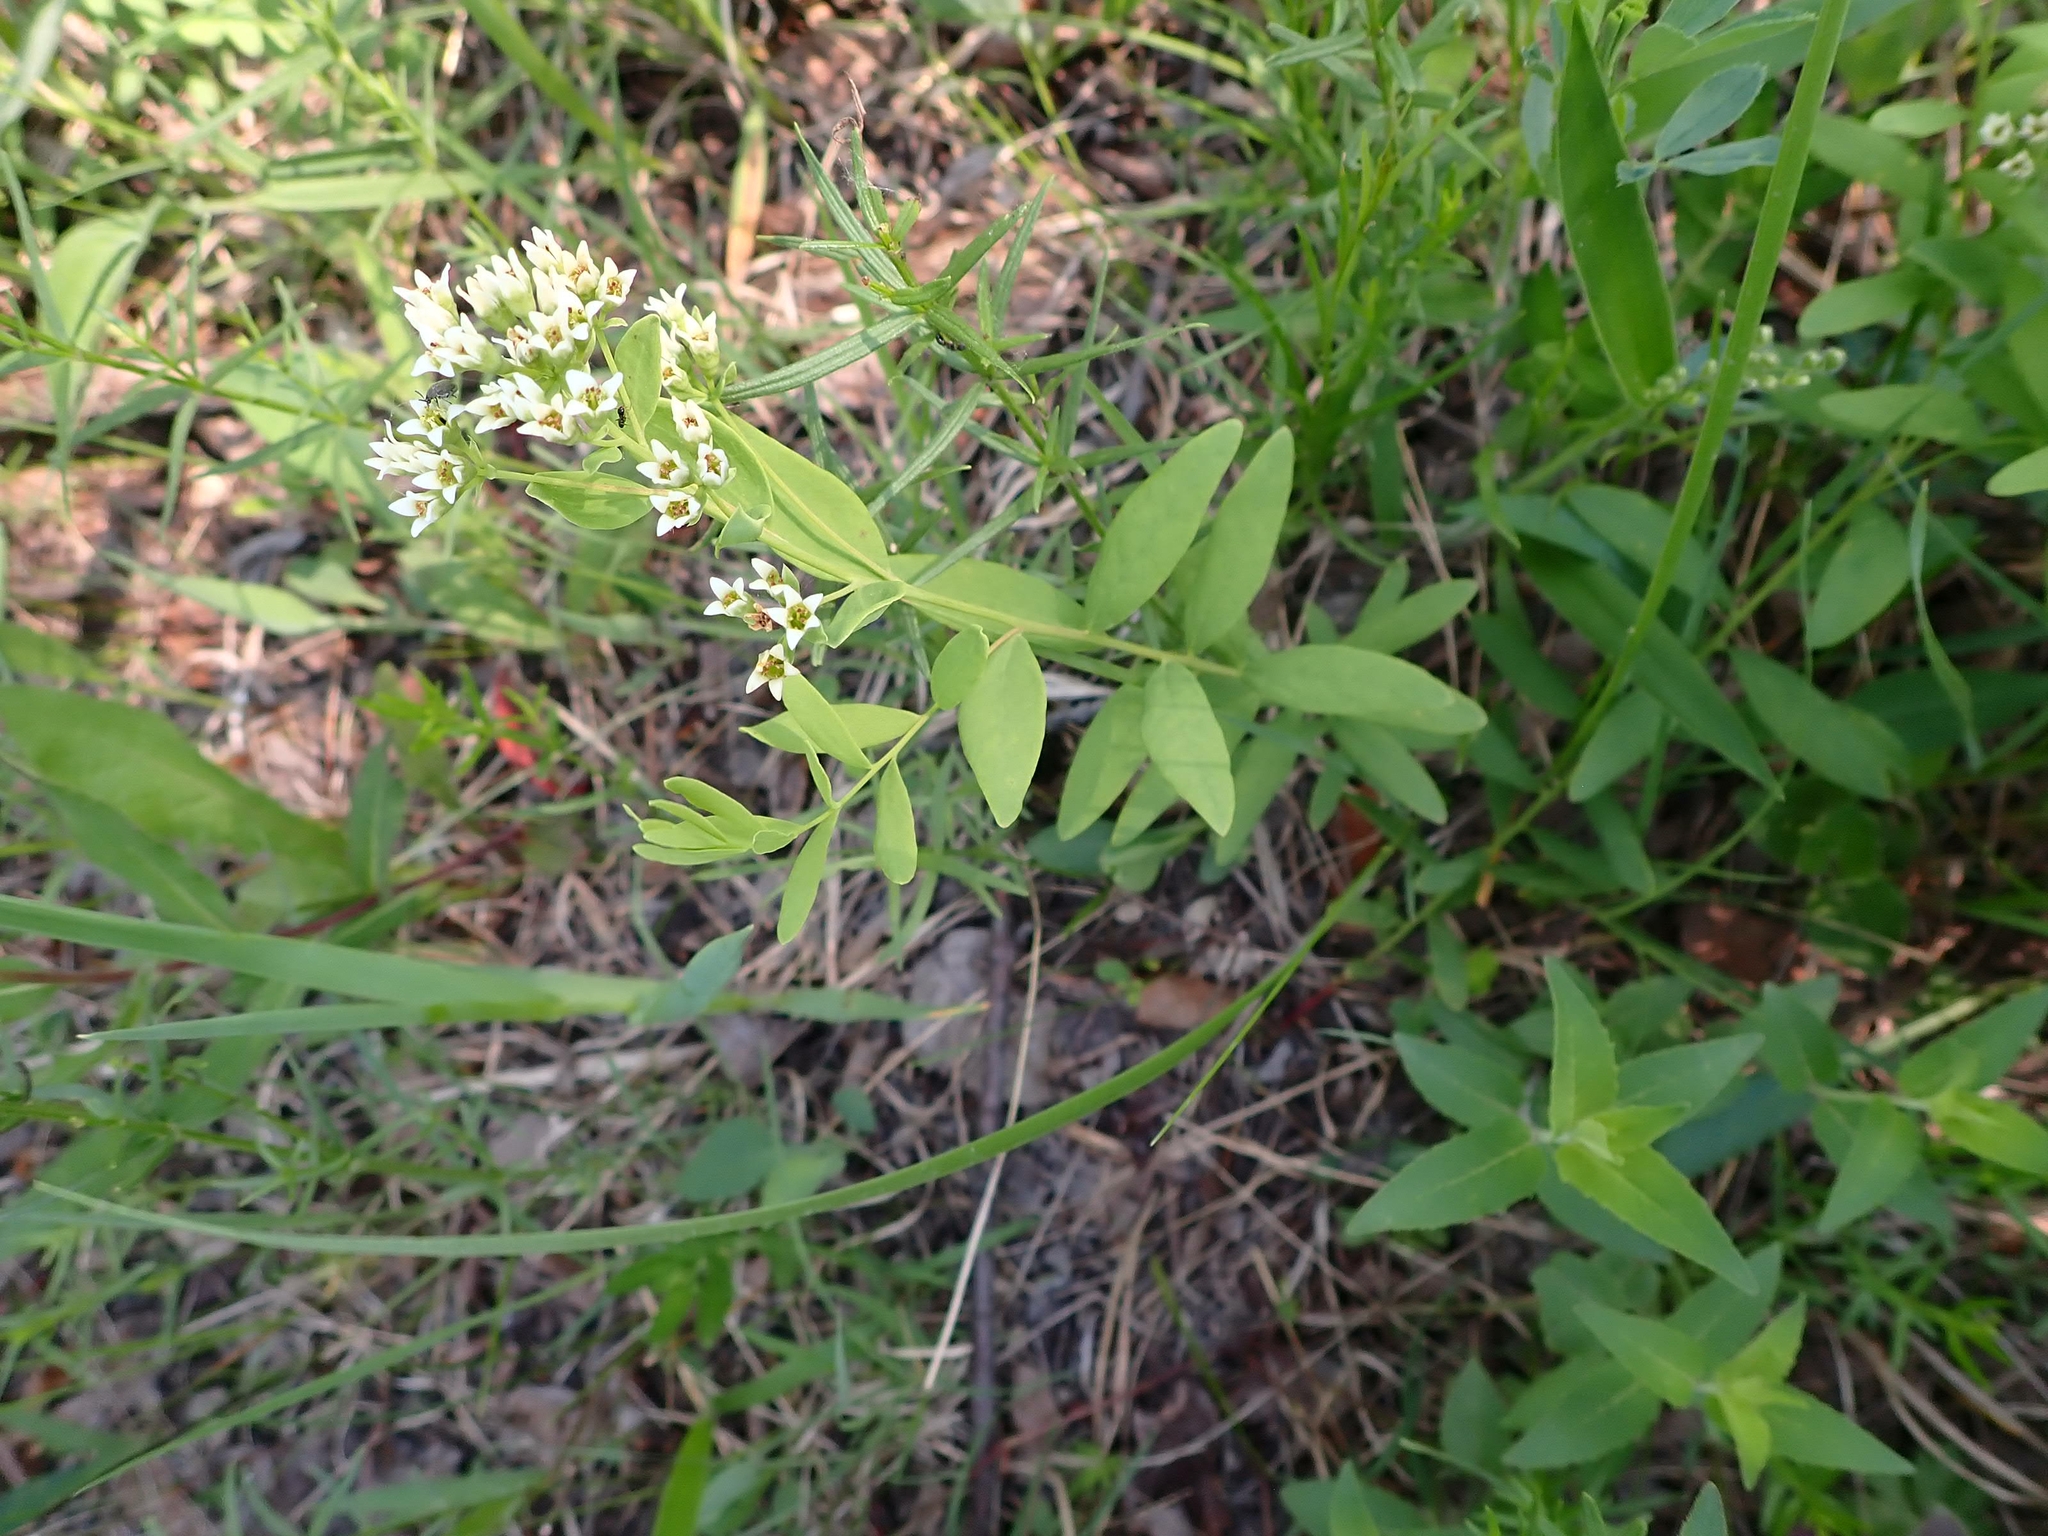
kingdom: Plantae
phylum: Tracheophyta
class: Magnoliopsida
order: Santalales
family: Comandraceae
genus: Comandra
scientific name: Comandra umbellata
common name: Bastard toadflax
